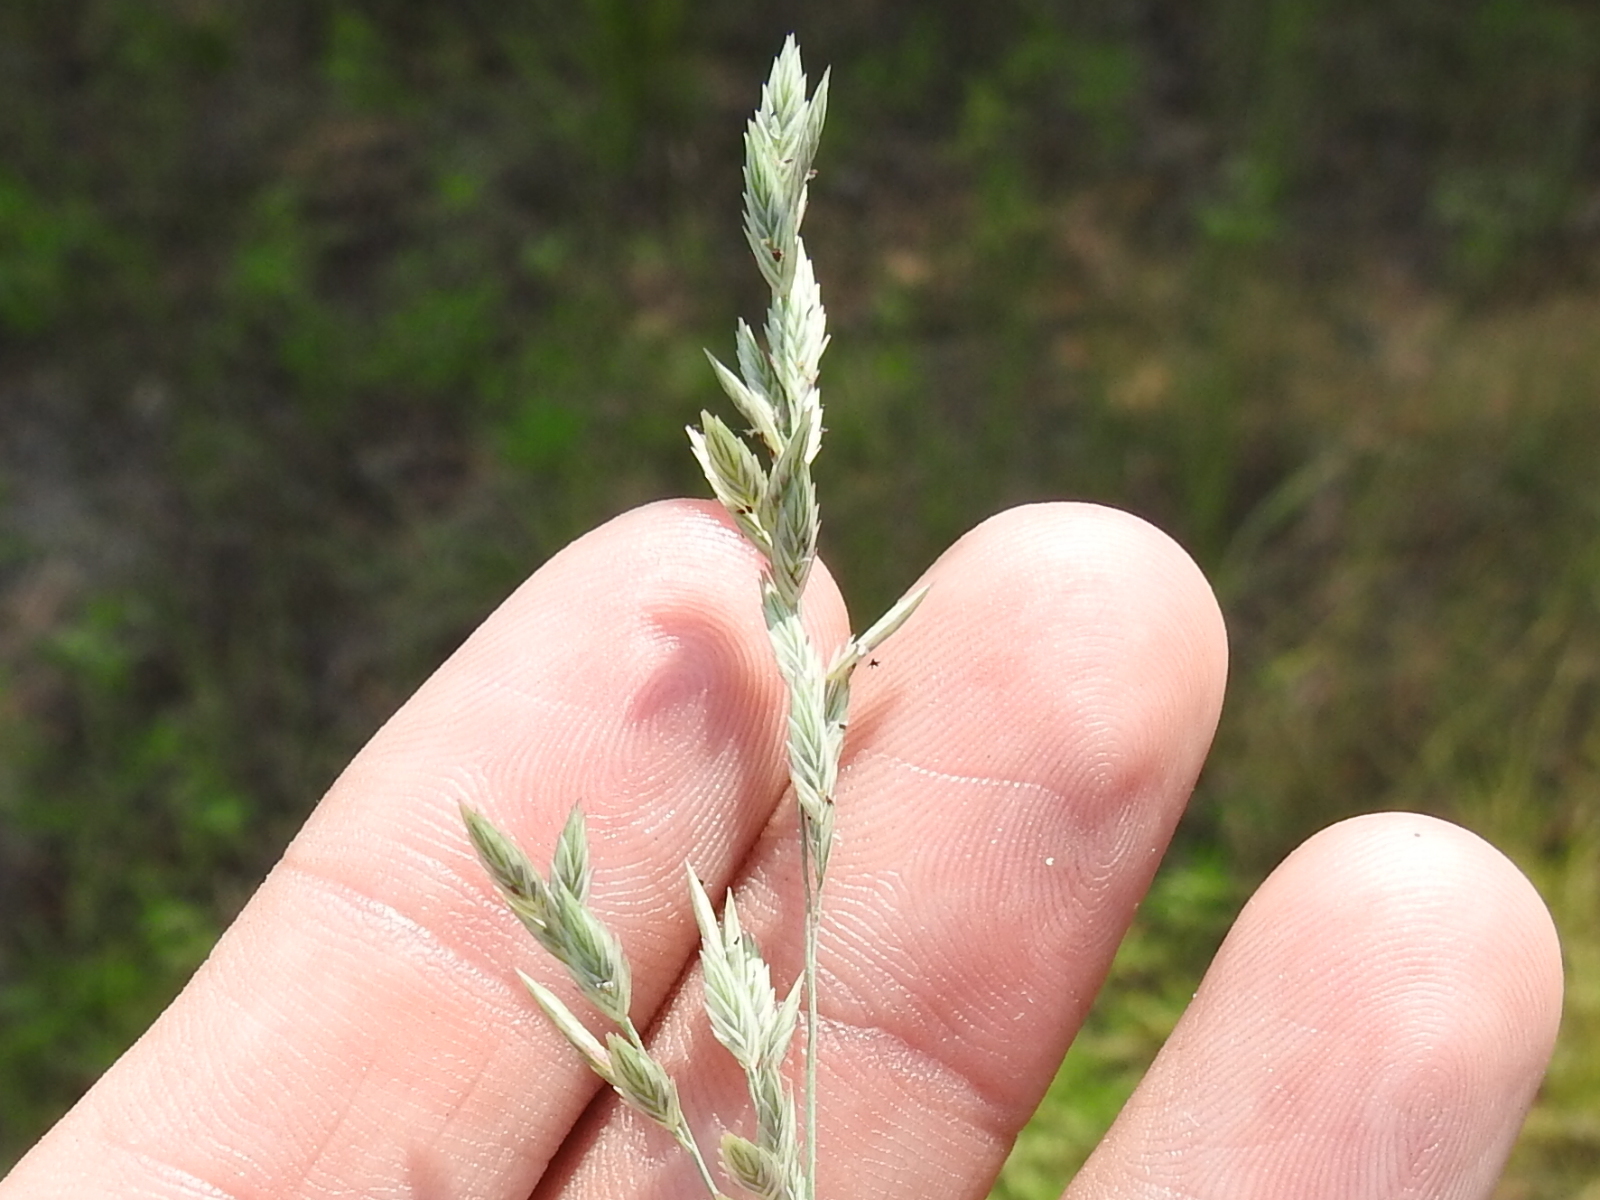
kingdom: Plantae
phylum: Tracheophyta
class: Liliopsida
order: Poales
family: Poaceae
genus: Eragrostis
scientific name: Eragrostis secundiflora
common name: Red love grass
